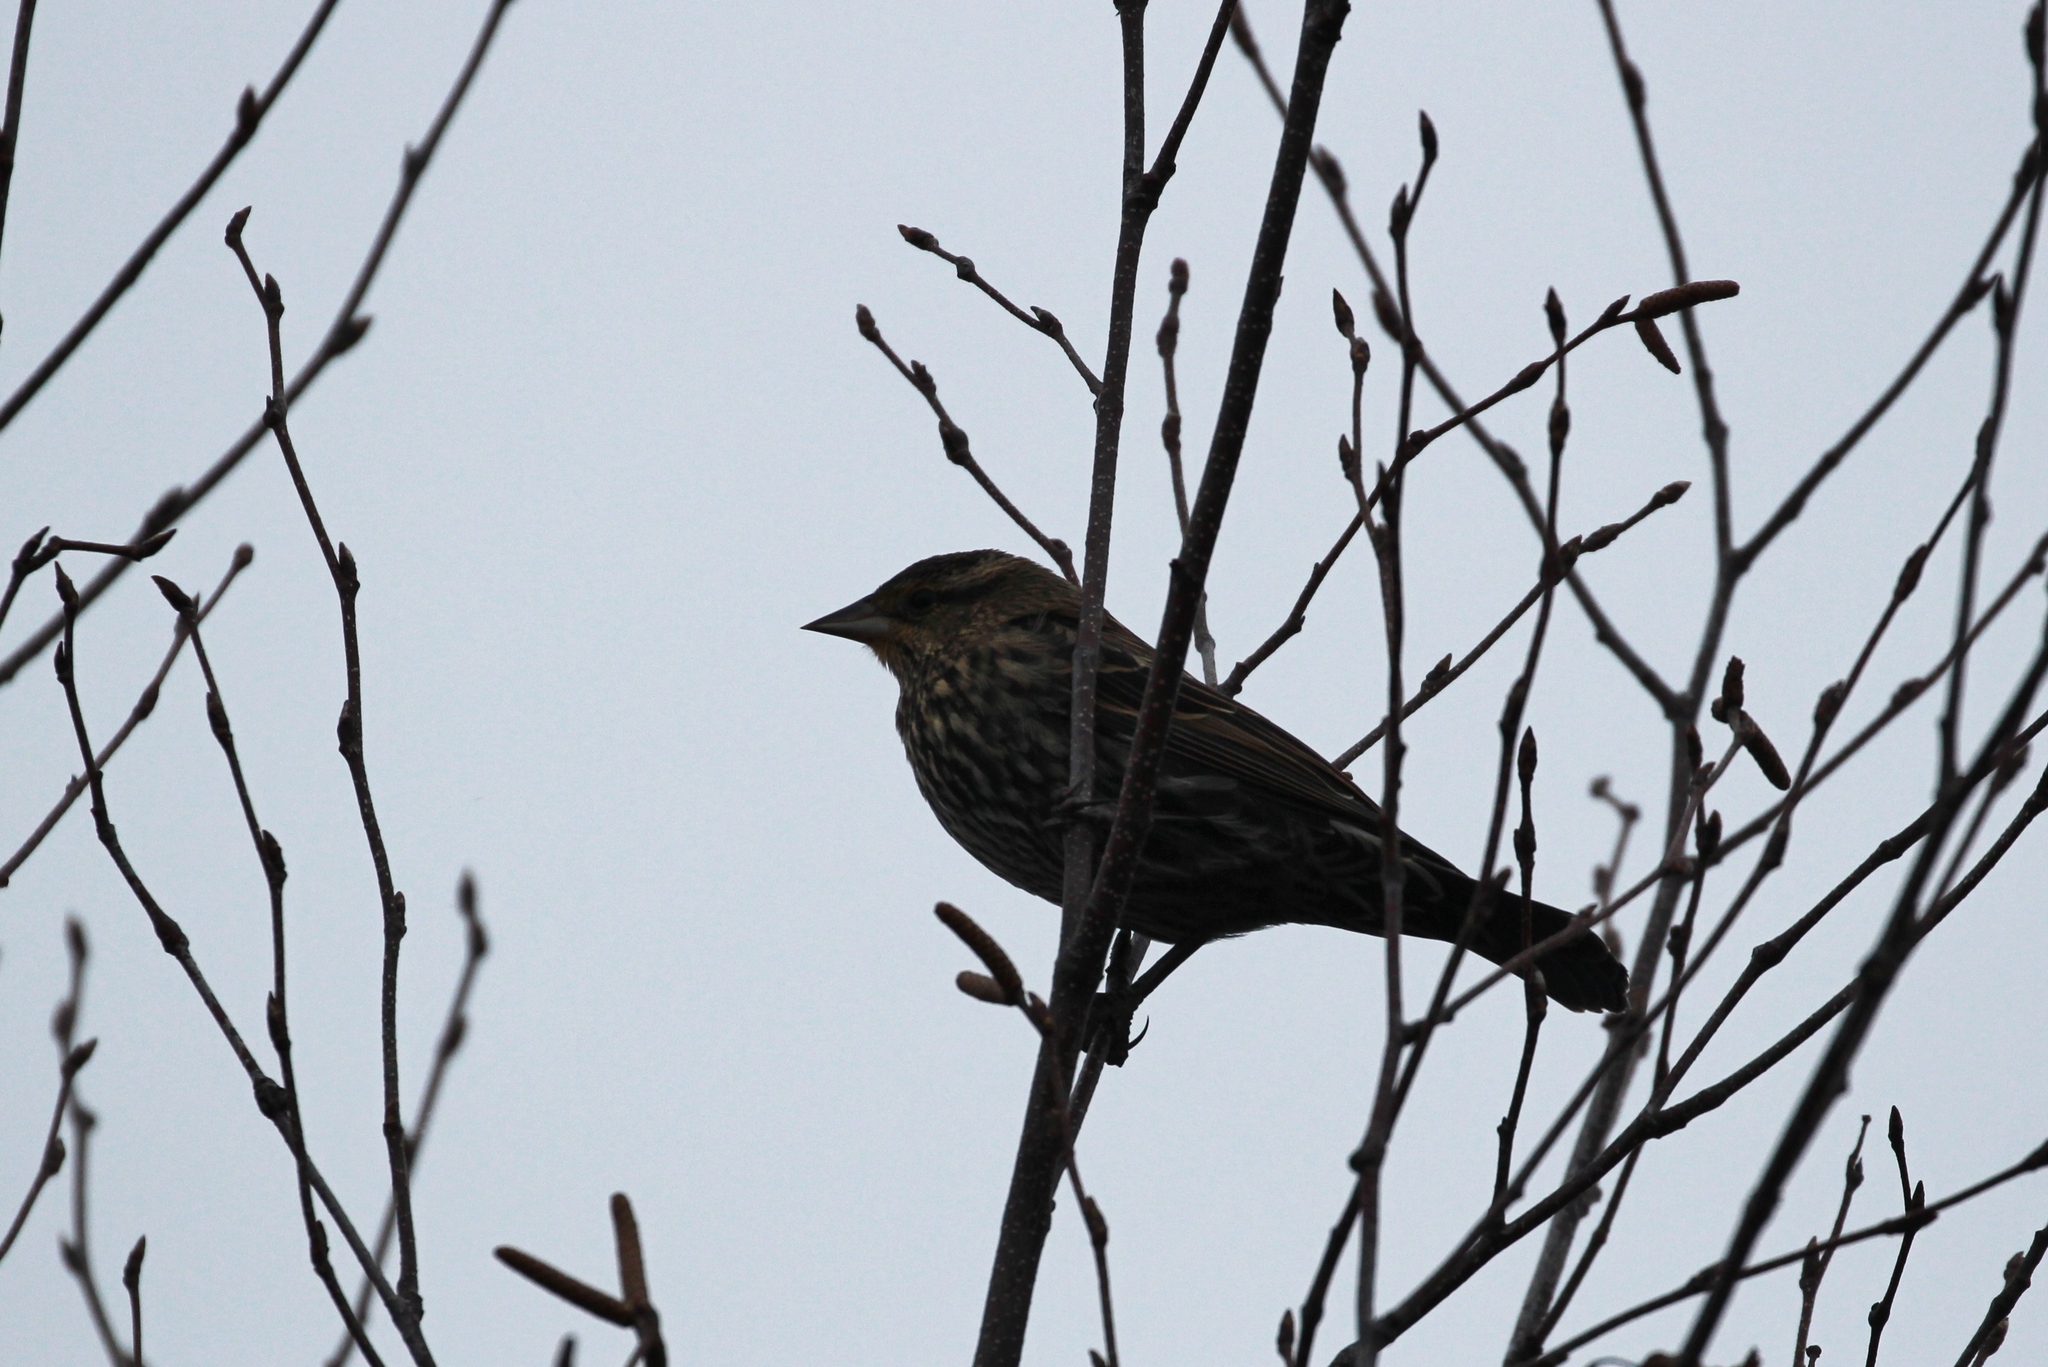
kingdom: Animalia
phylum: Chordata
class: Aves
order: Passeriformes
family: Icteridae
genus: Agelaius
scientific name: Agelaius phoeniceus
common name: Red-winged blackbird
